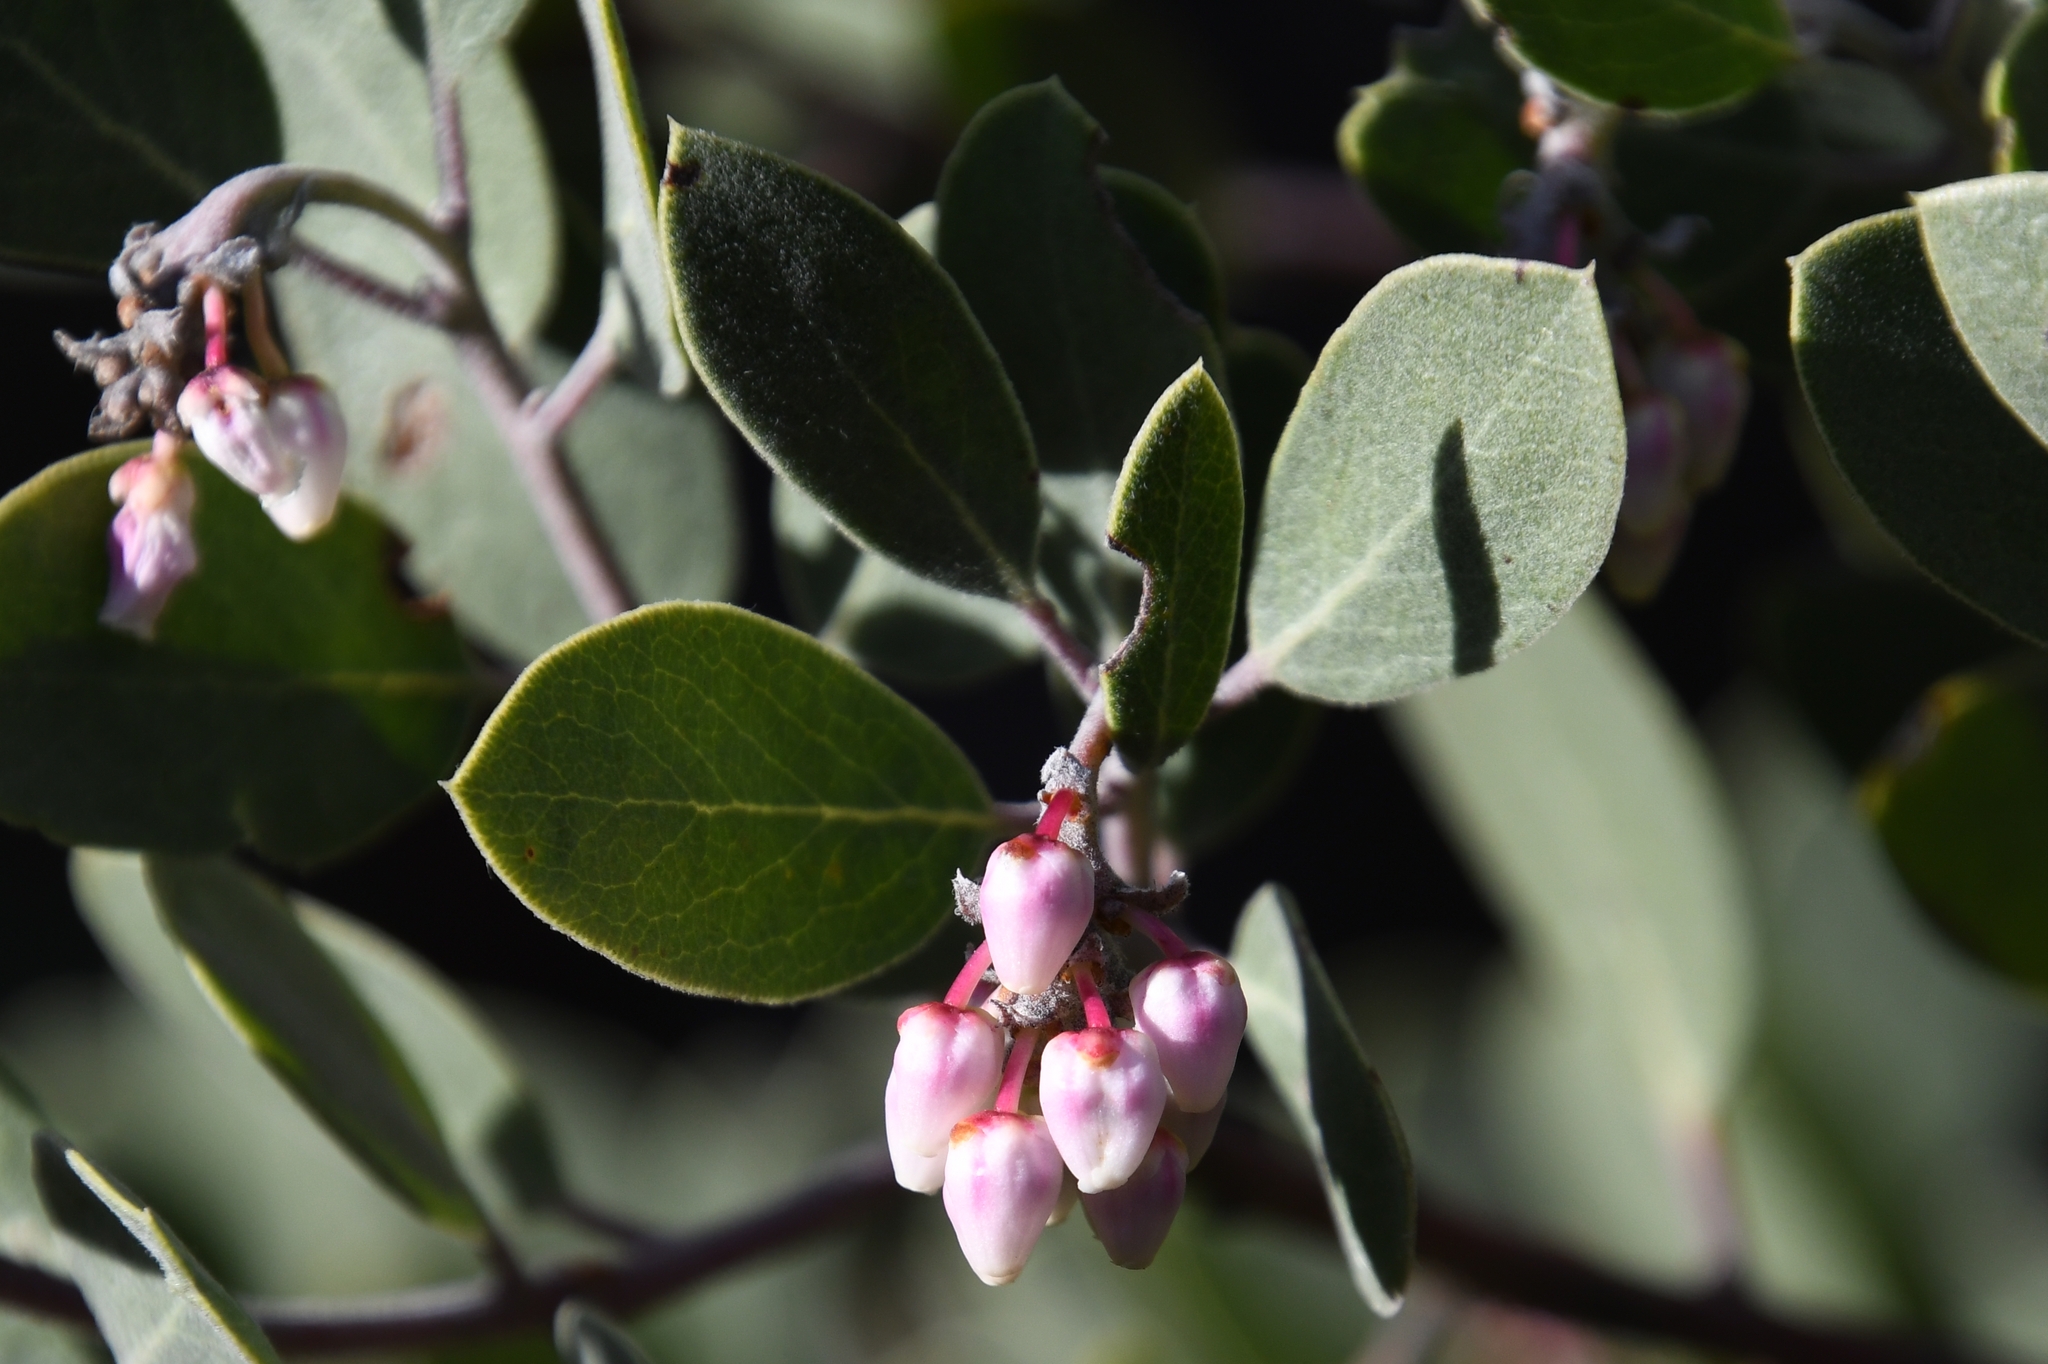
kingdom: Plantae
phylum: Tracheophyta
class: Magnoliopsida
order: Ericales
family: Ericaceae
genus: Arctostaphylos
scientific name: Arctostaphylos pungens
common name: Mexican manzanita
